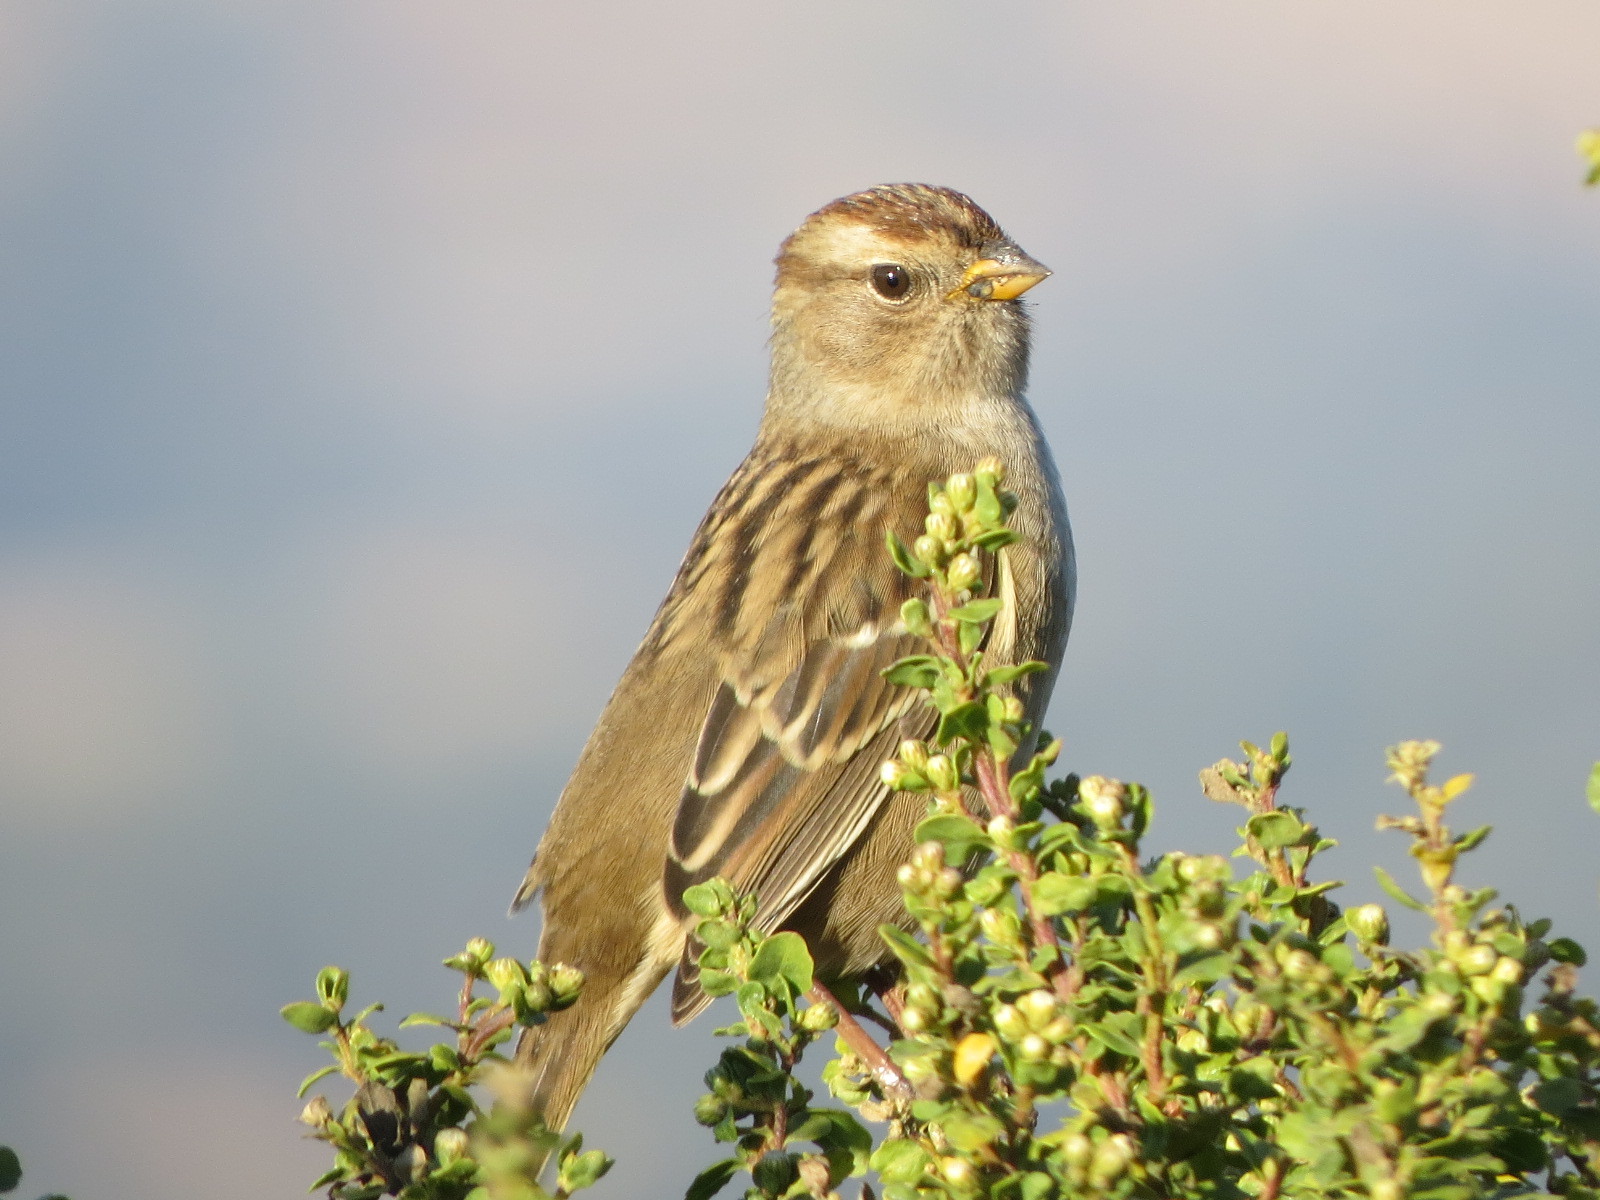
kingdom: Animalia
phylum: Chordata
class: Aves
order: Passeriformes
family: Passerellidae
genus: Zonotrichia
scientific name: Zonotrichia leucophrys
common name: White-crowned sparrow
